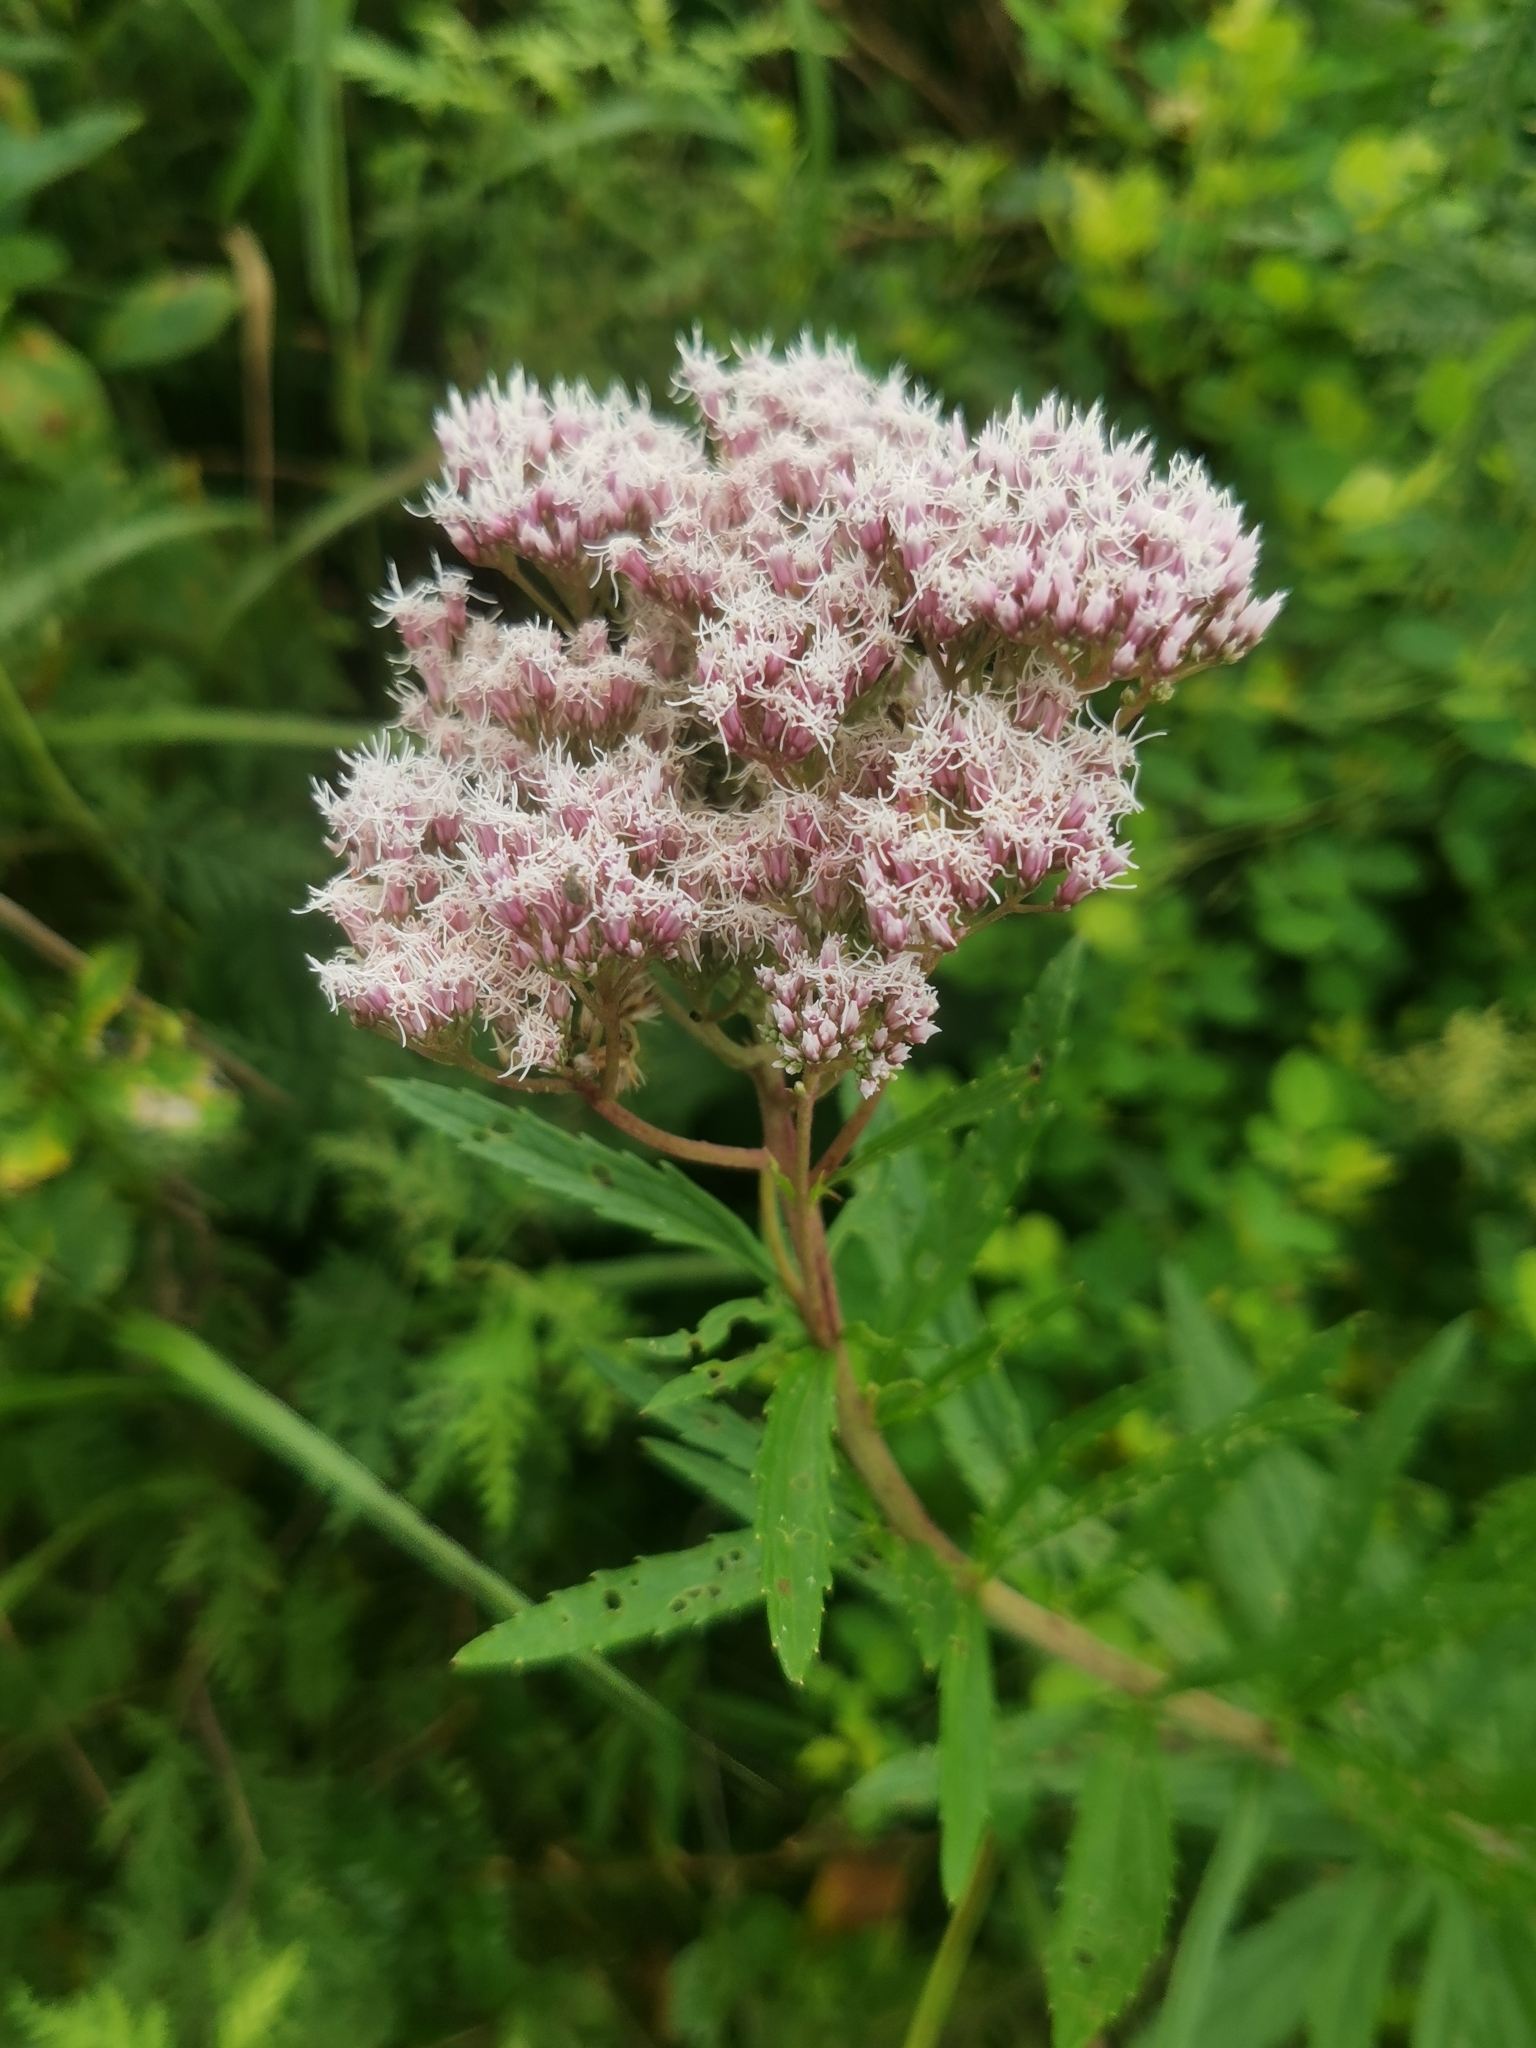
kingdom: Plantae
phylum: Tracheophyta
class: Magnoliopsida
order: Asterales
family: Asteraceae
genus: Eupatorium
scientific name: Eupatorium lindleyanum
